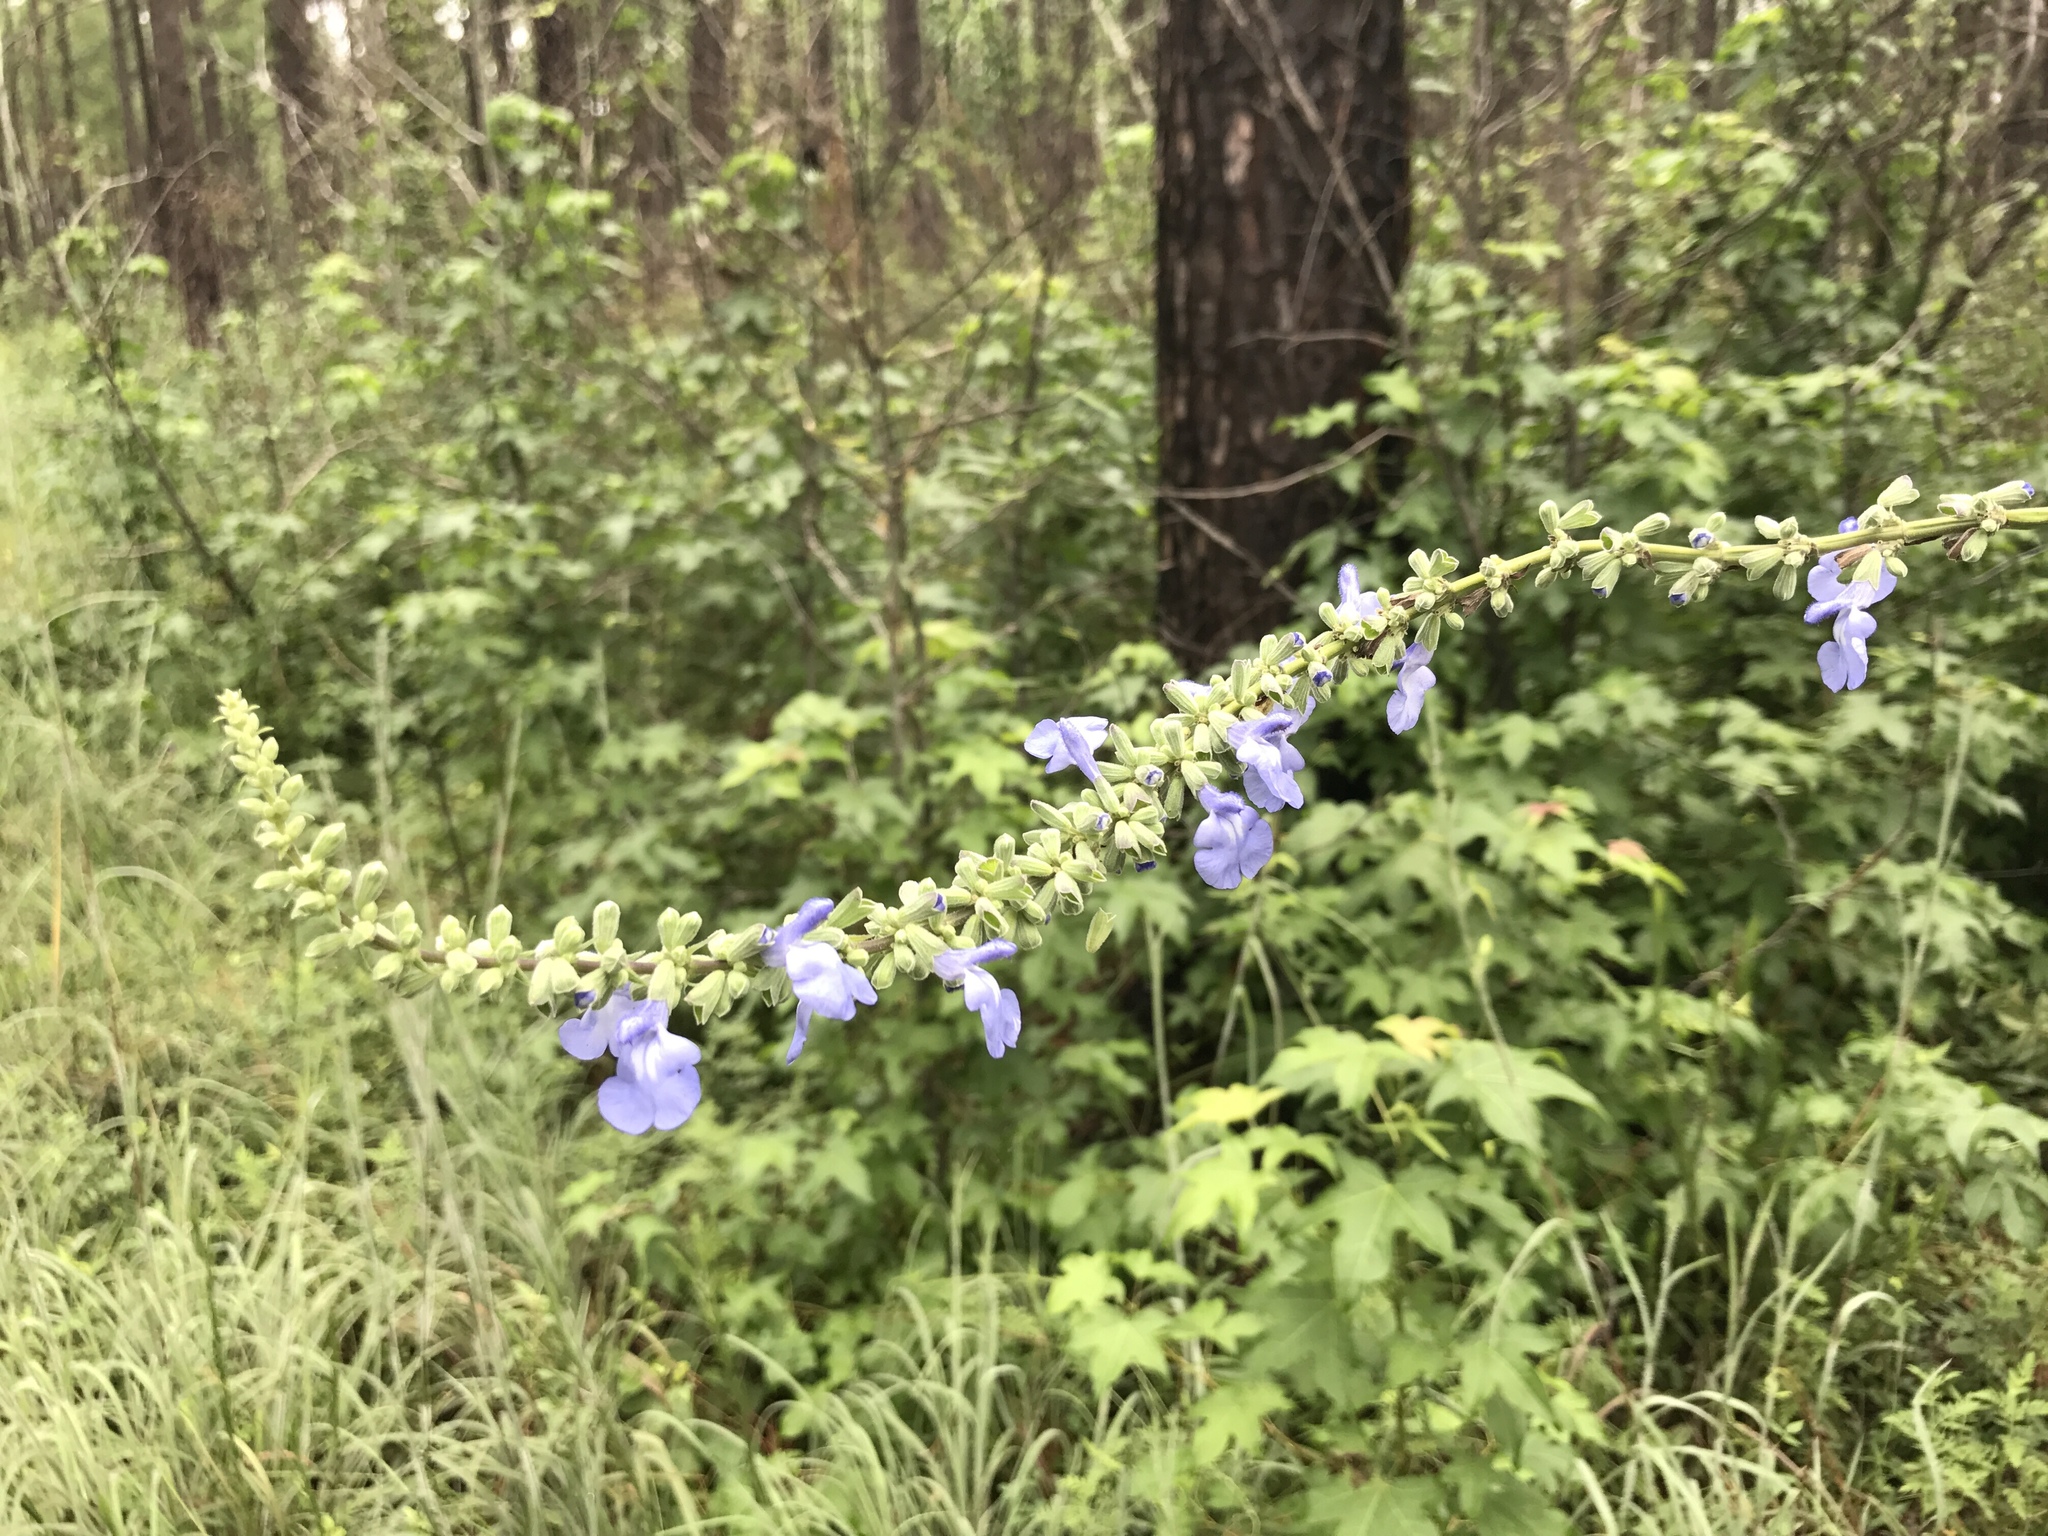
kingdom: Plantae
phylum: Tracheophyta
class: Magnoliopsida
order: Lamiales
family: Lamiaceae
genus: Salvia
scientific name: Salvia azurea
